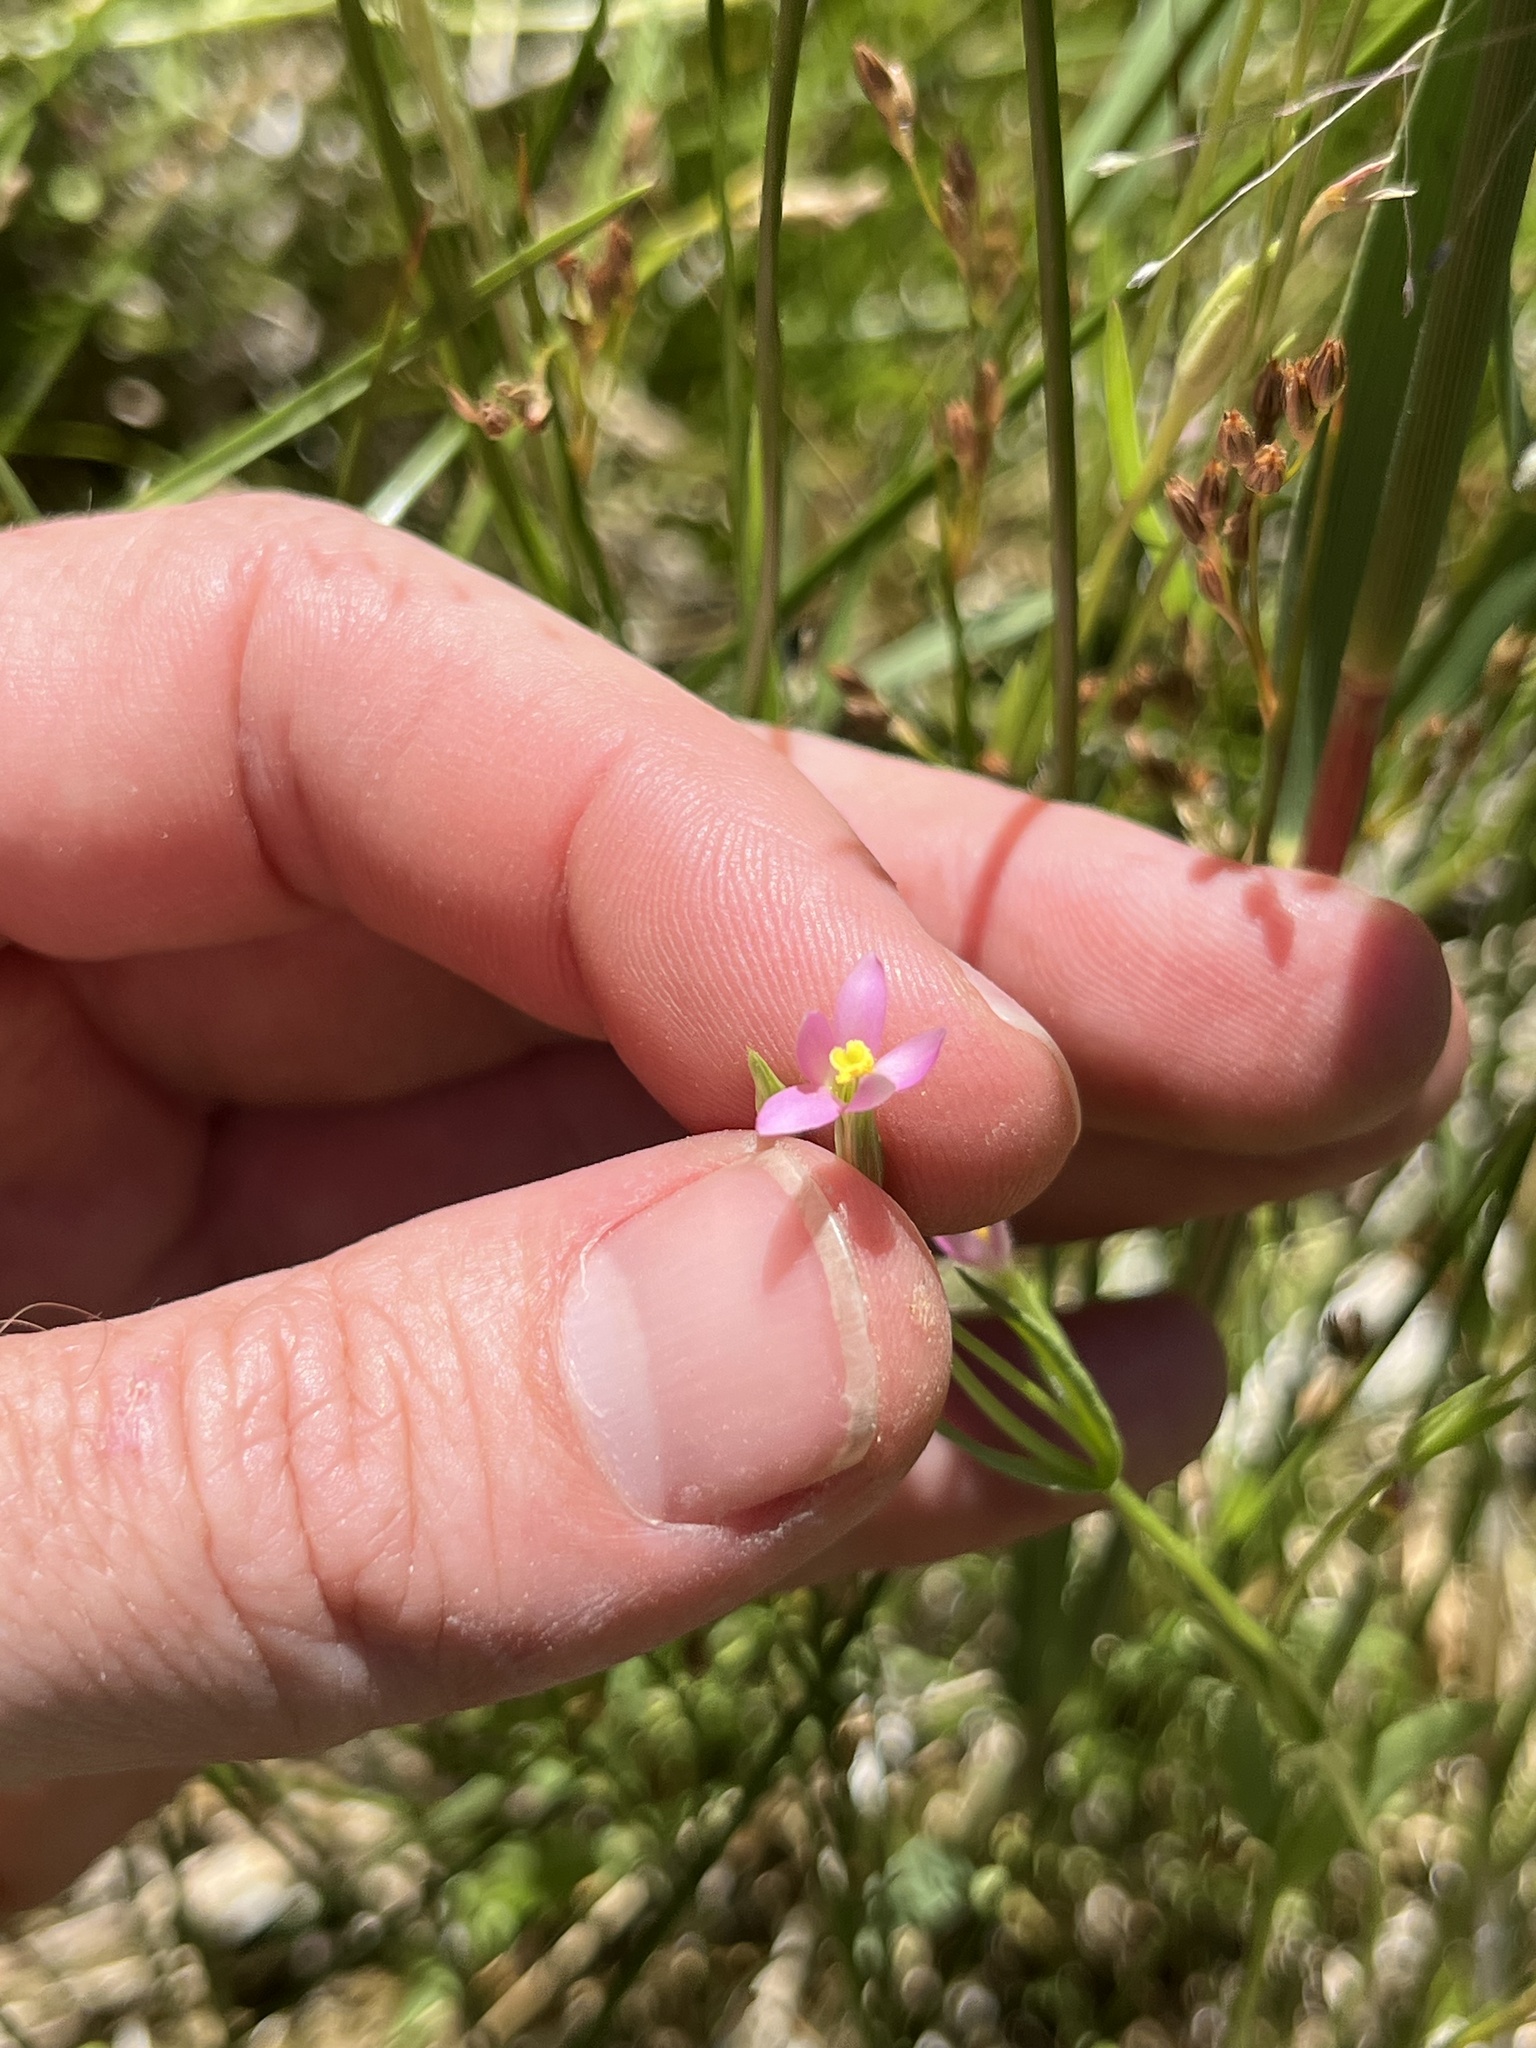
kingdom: Plantae
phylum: Tracheophyta
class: Magnoliopsida
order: Gentianales
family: Gentianaceae
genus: Zeltnera
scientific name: Zeltnera exaltata
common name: Great basin centaury
